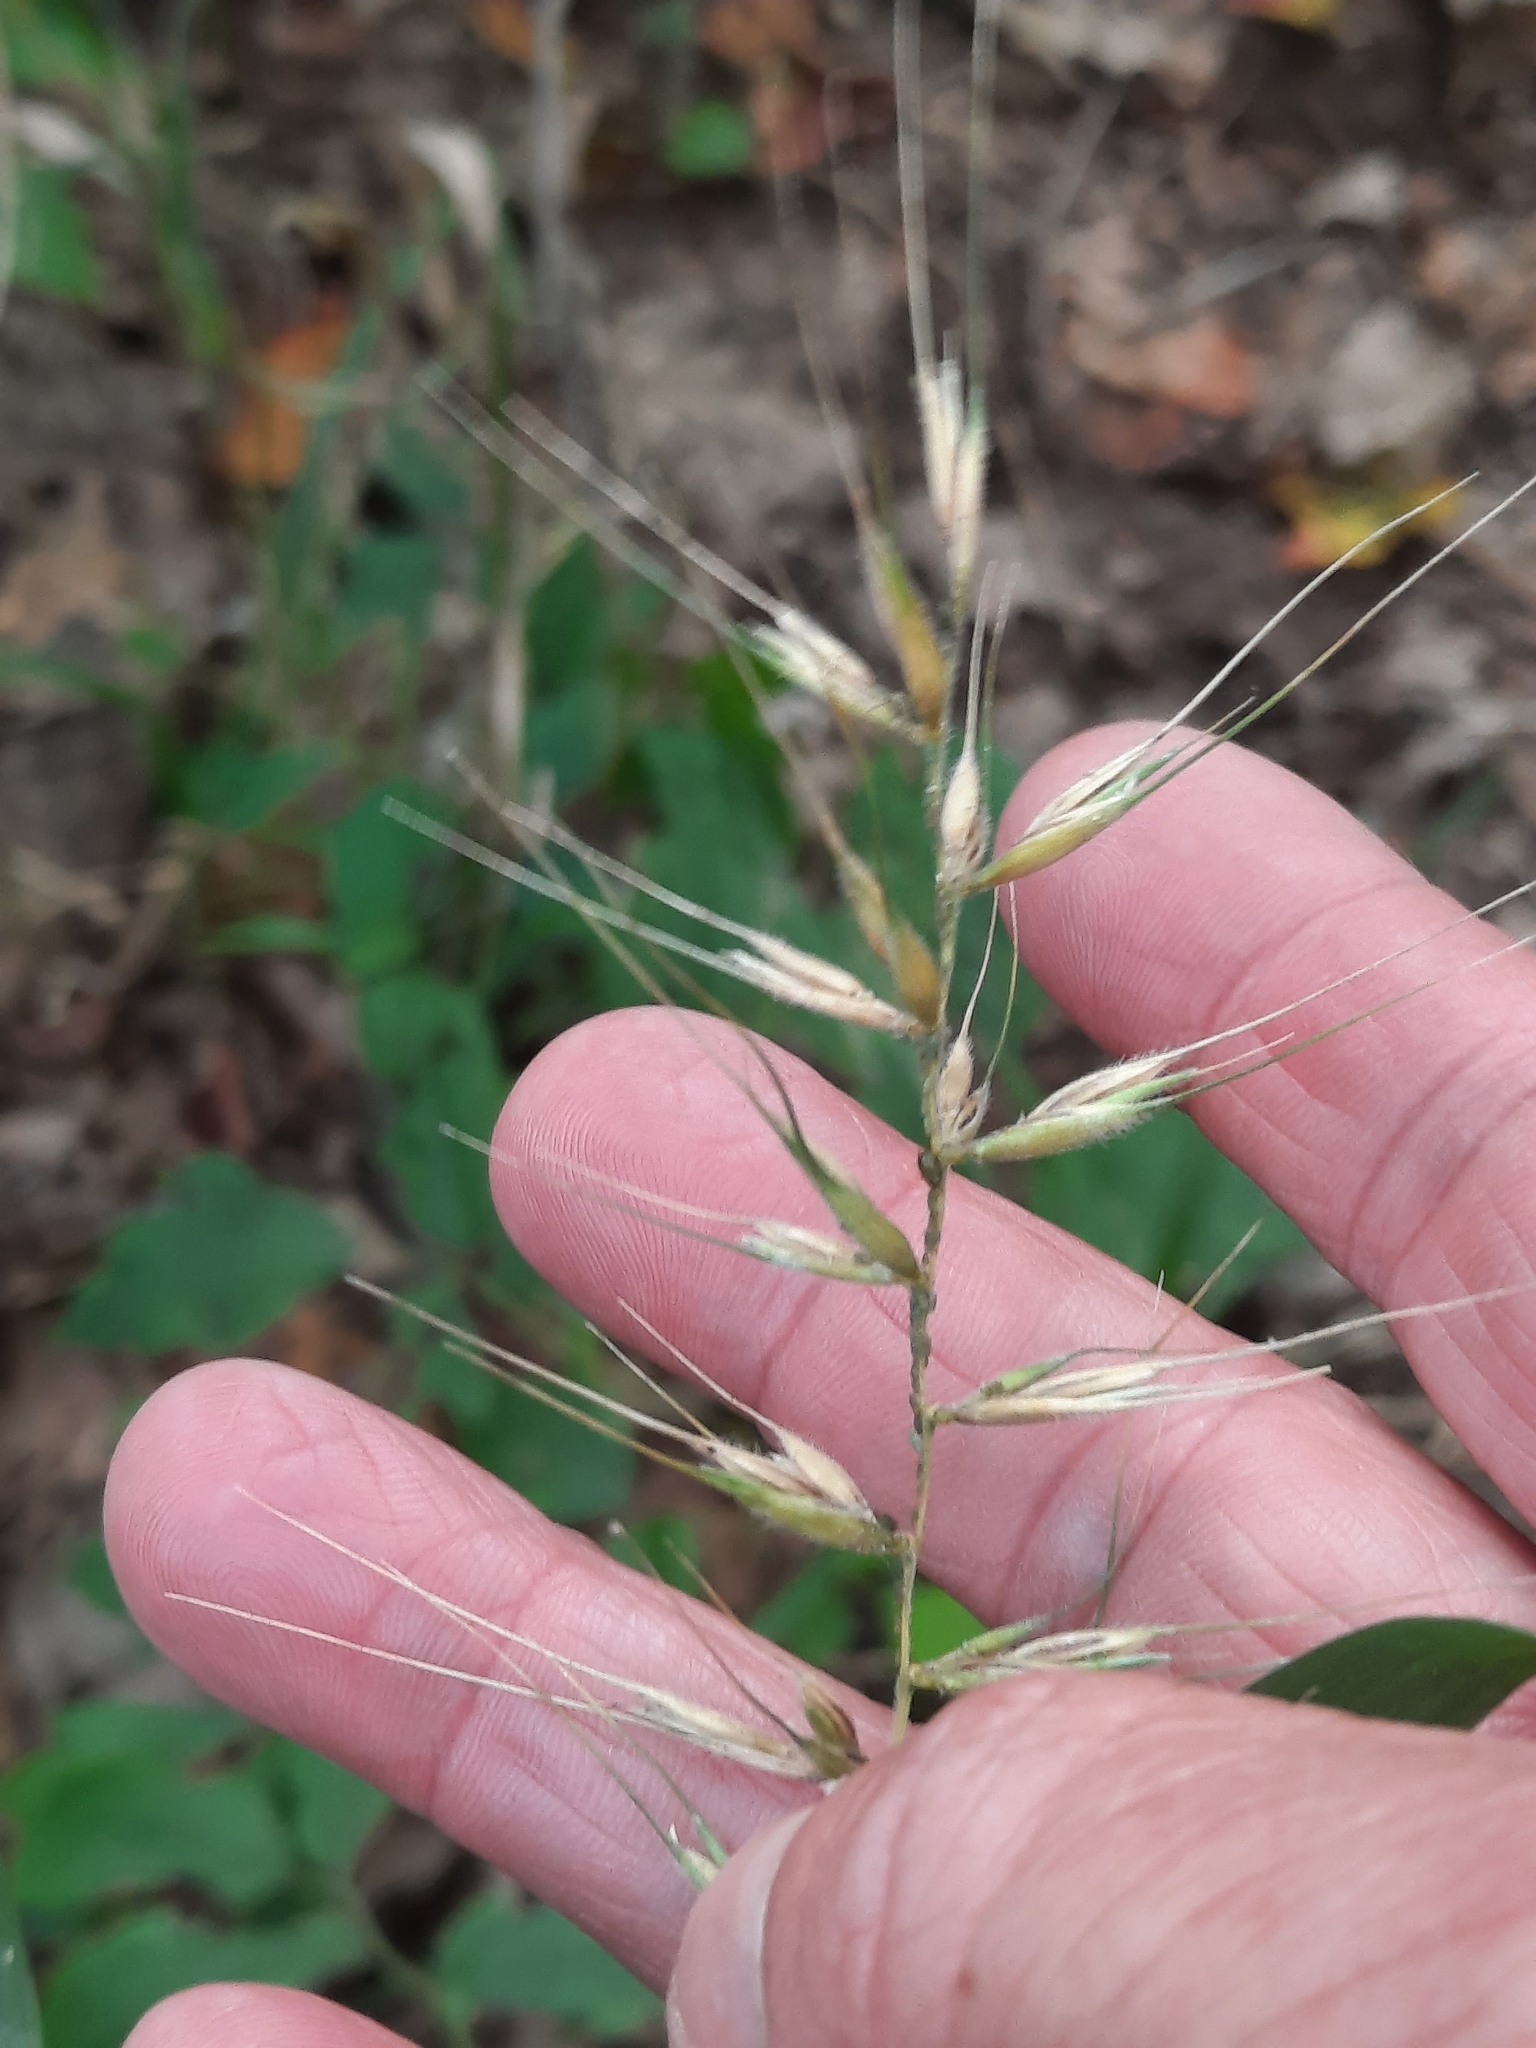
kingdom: Plantae
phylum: Tracheophyta
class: Liliopsida
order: Poales
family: Poaceae
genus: Elymus
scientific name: Elymus hystrix
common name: Bottlebrush grass
